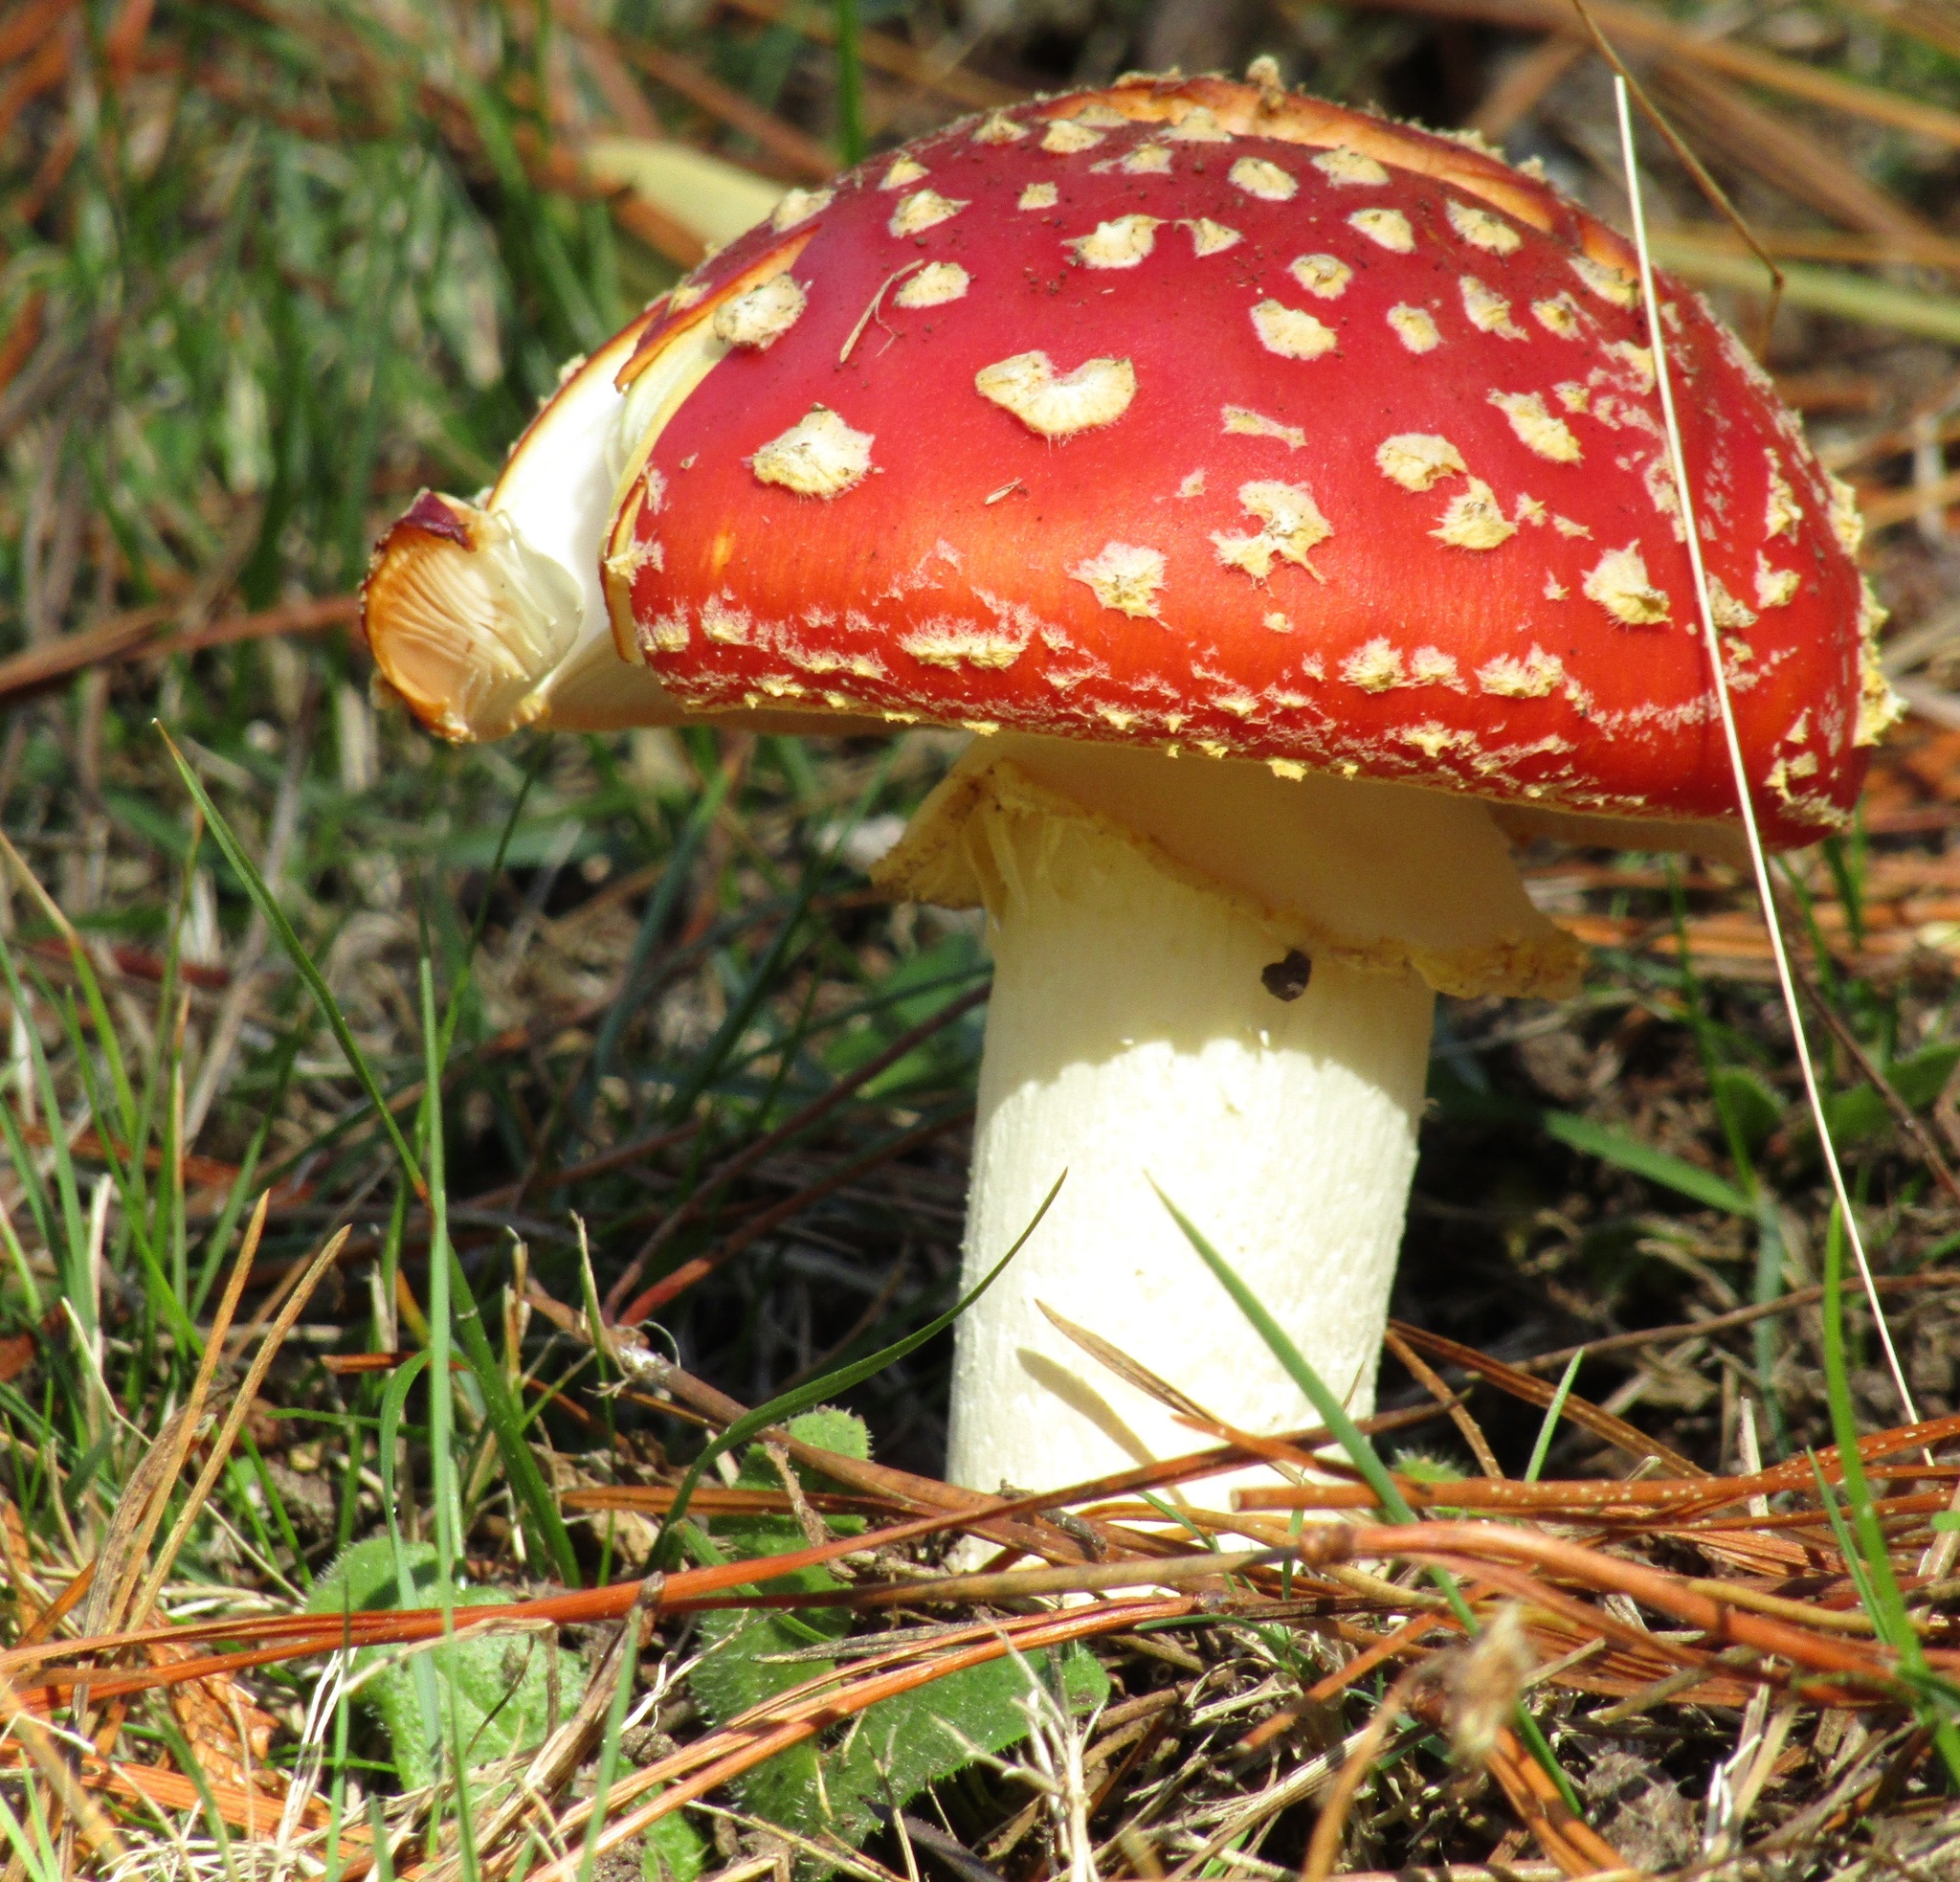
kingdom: Fungi
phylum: Basidiomycota
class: Agaricomycetes
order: Agaricales
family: Amanitaceae
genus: Amanita
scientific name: Amanita muscaria
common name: Fly agaric
